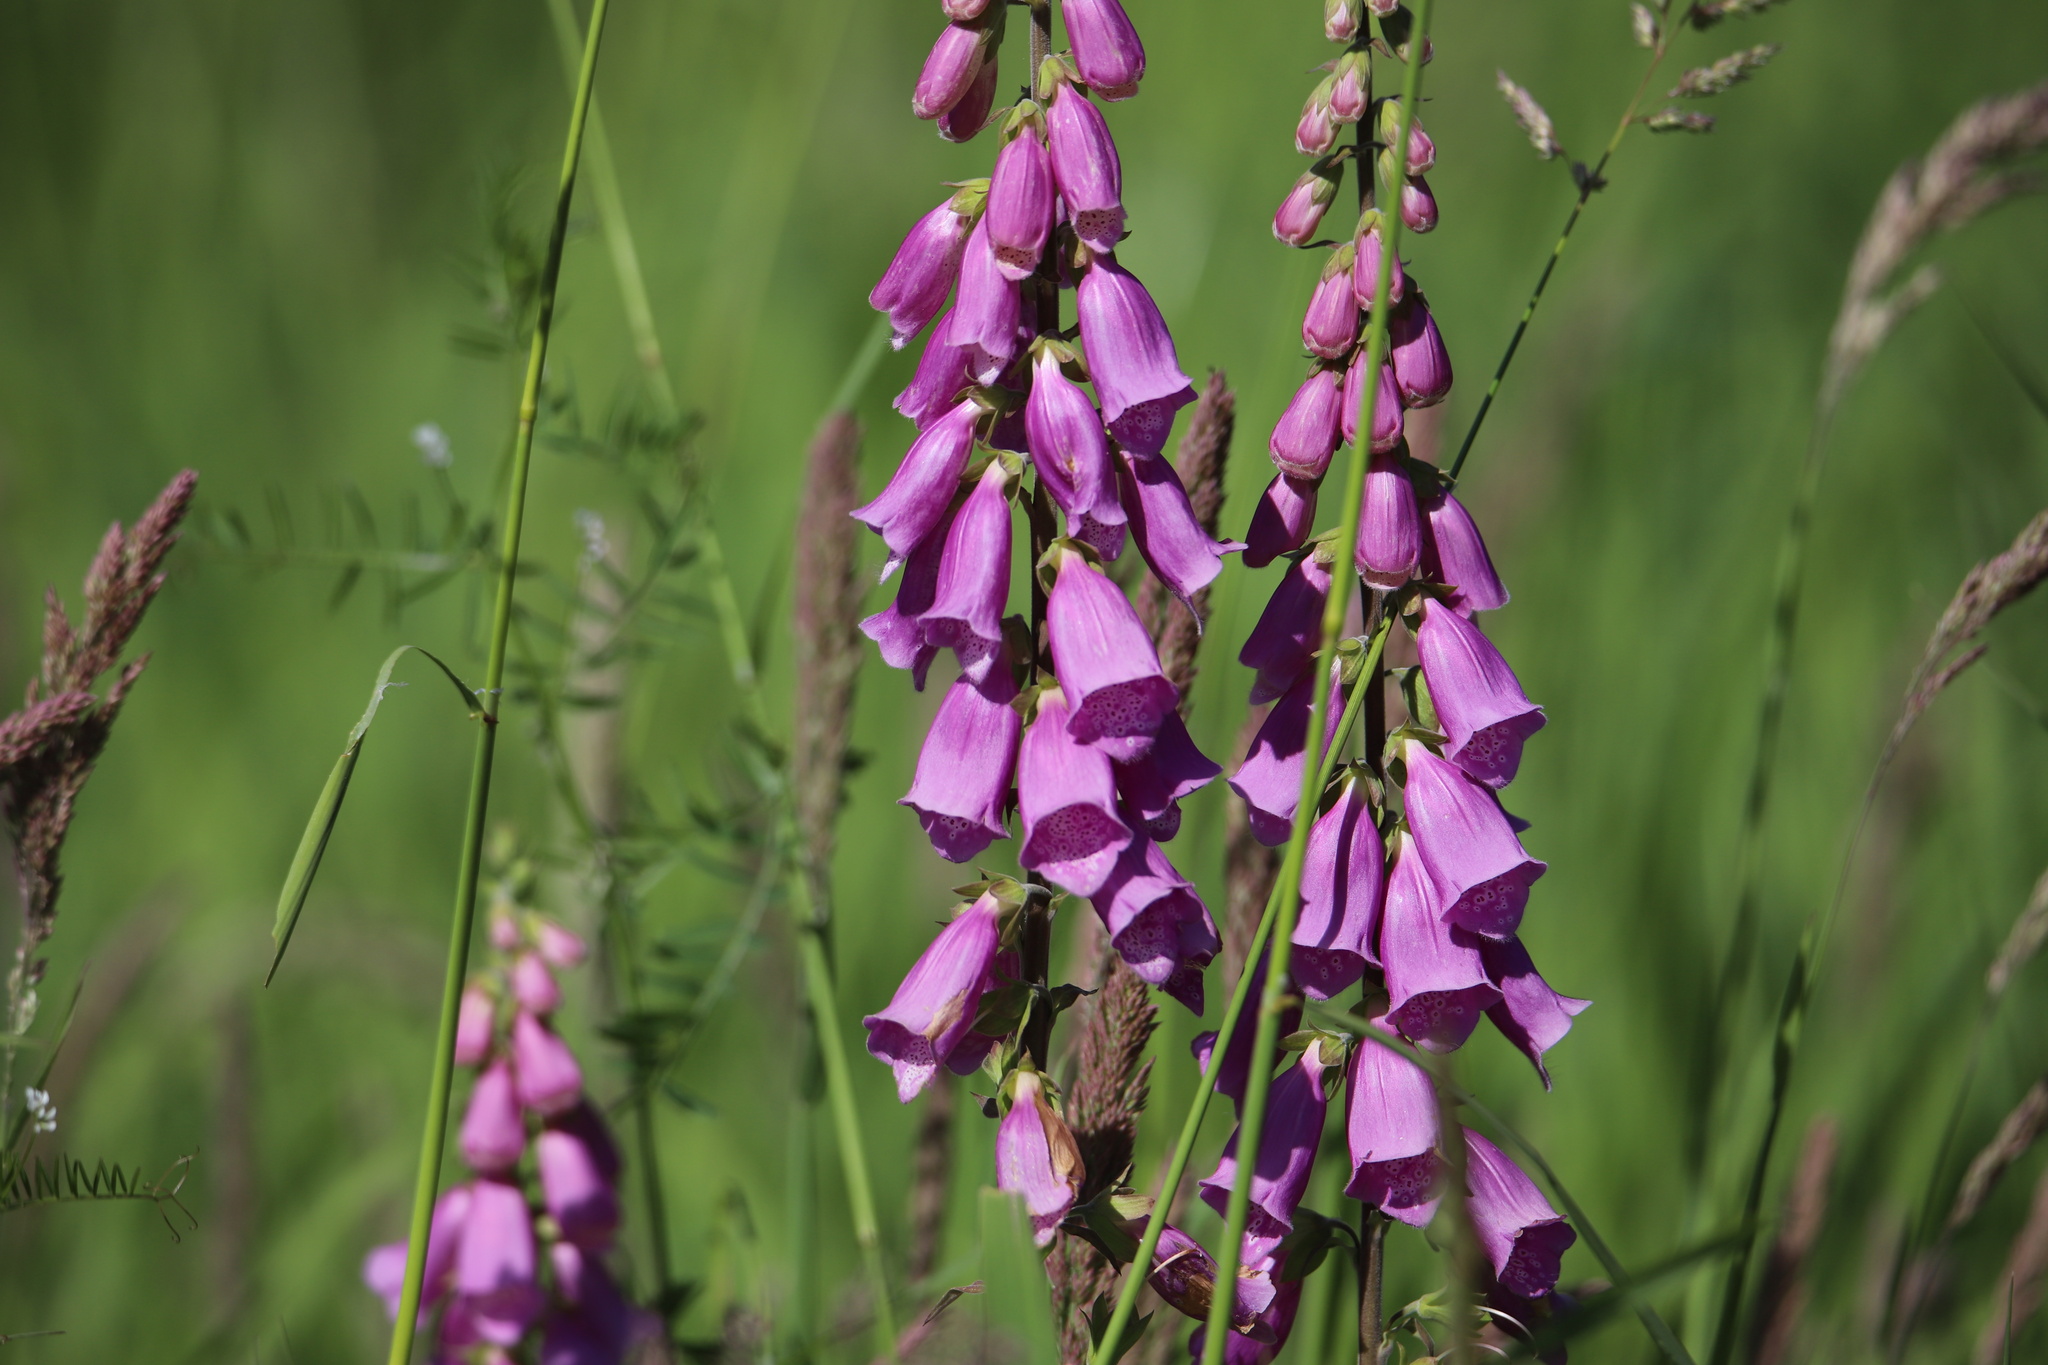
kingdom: Plantae
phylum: Tracheophyta
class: Magnoliopsida
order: Lamiales
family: Plantaginaceae
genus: Digitalis
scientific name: Digitalis purpurea
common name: Foxglove
